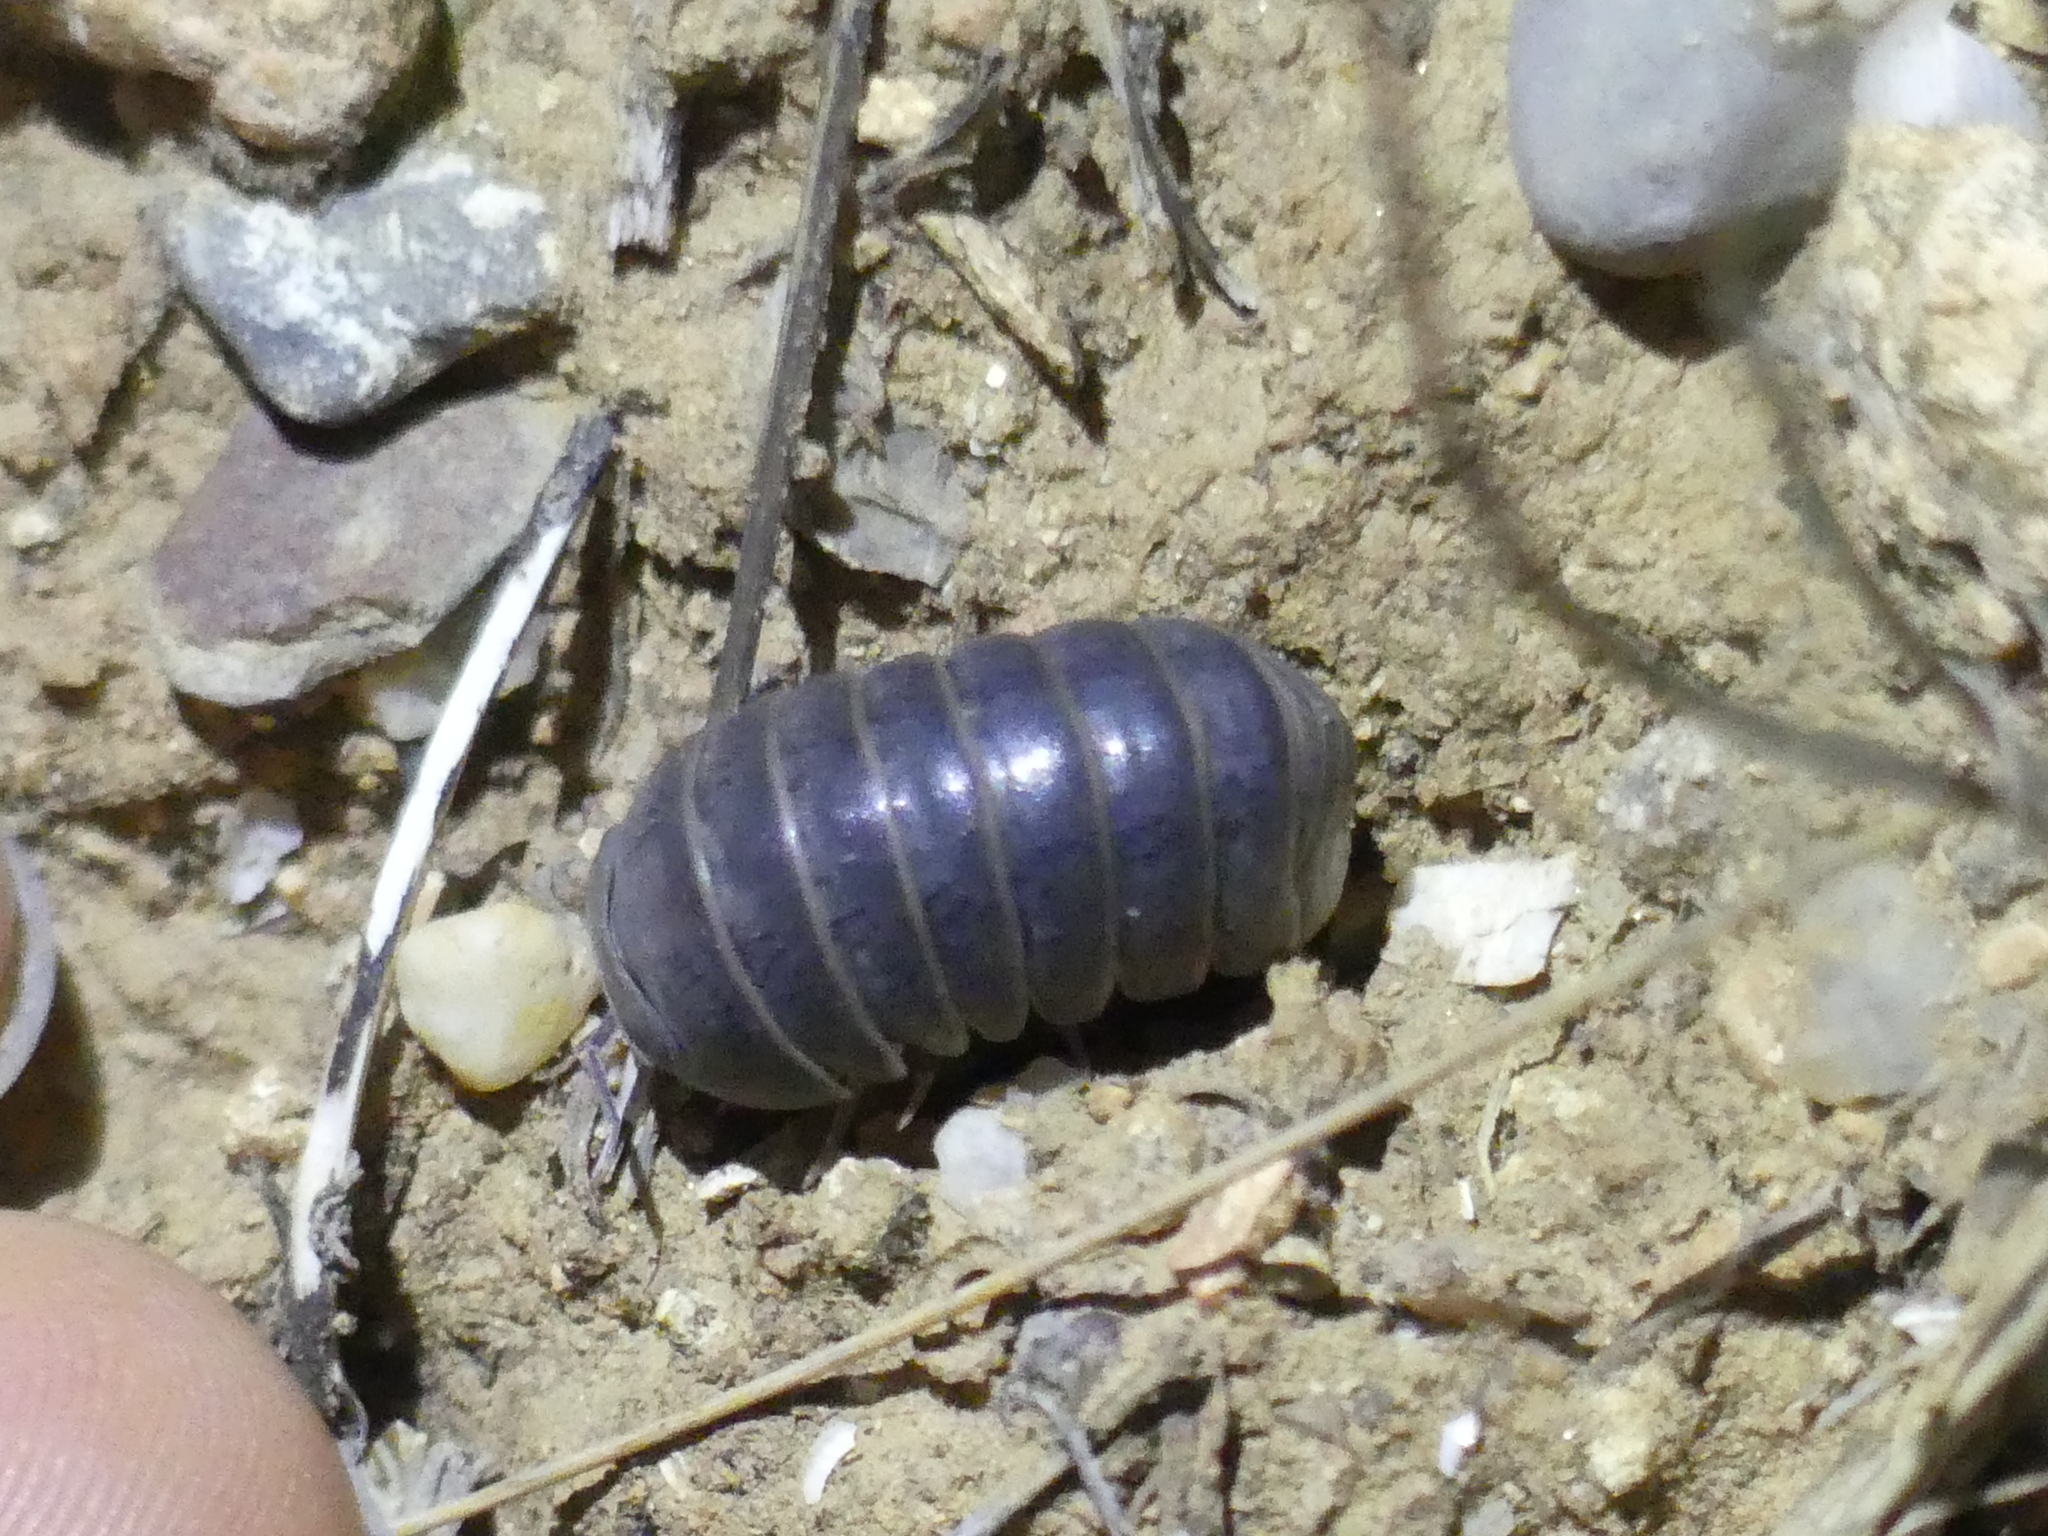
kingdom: Animalia
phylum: Arthropoda
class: Malacostraca
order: Isopoda
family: Armadillidae
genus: Armadillo
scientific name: Armadillo officinalis
